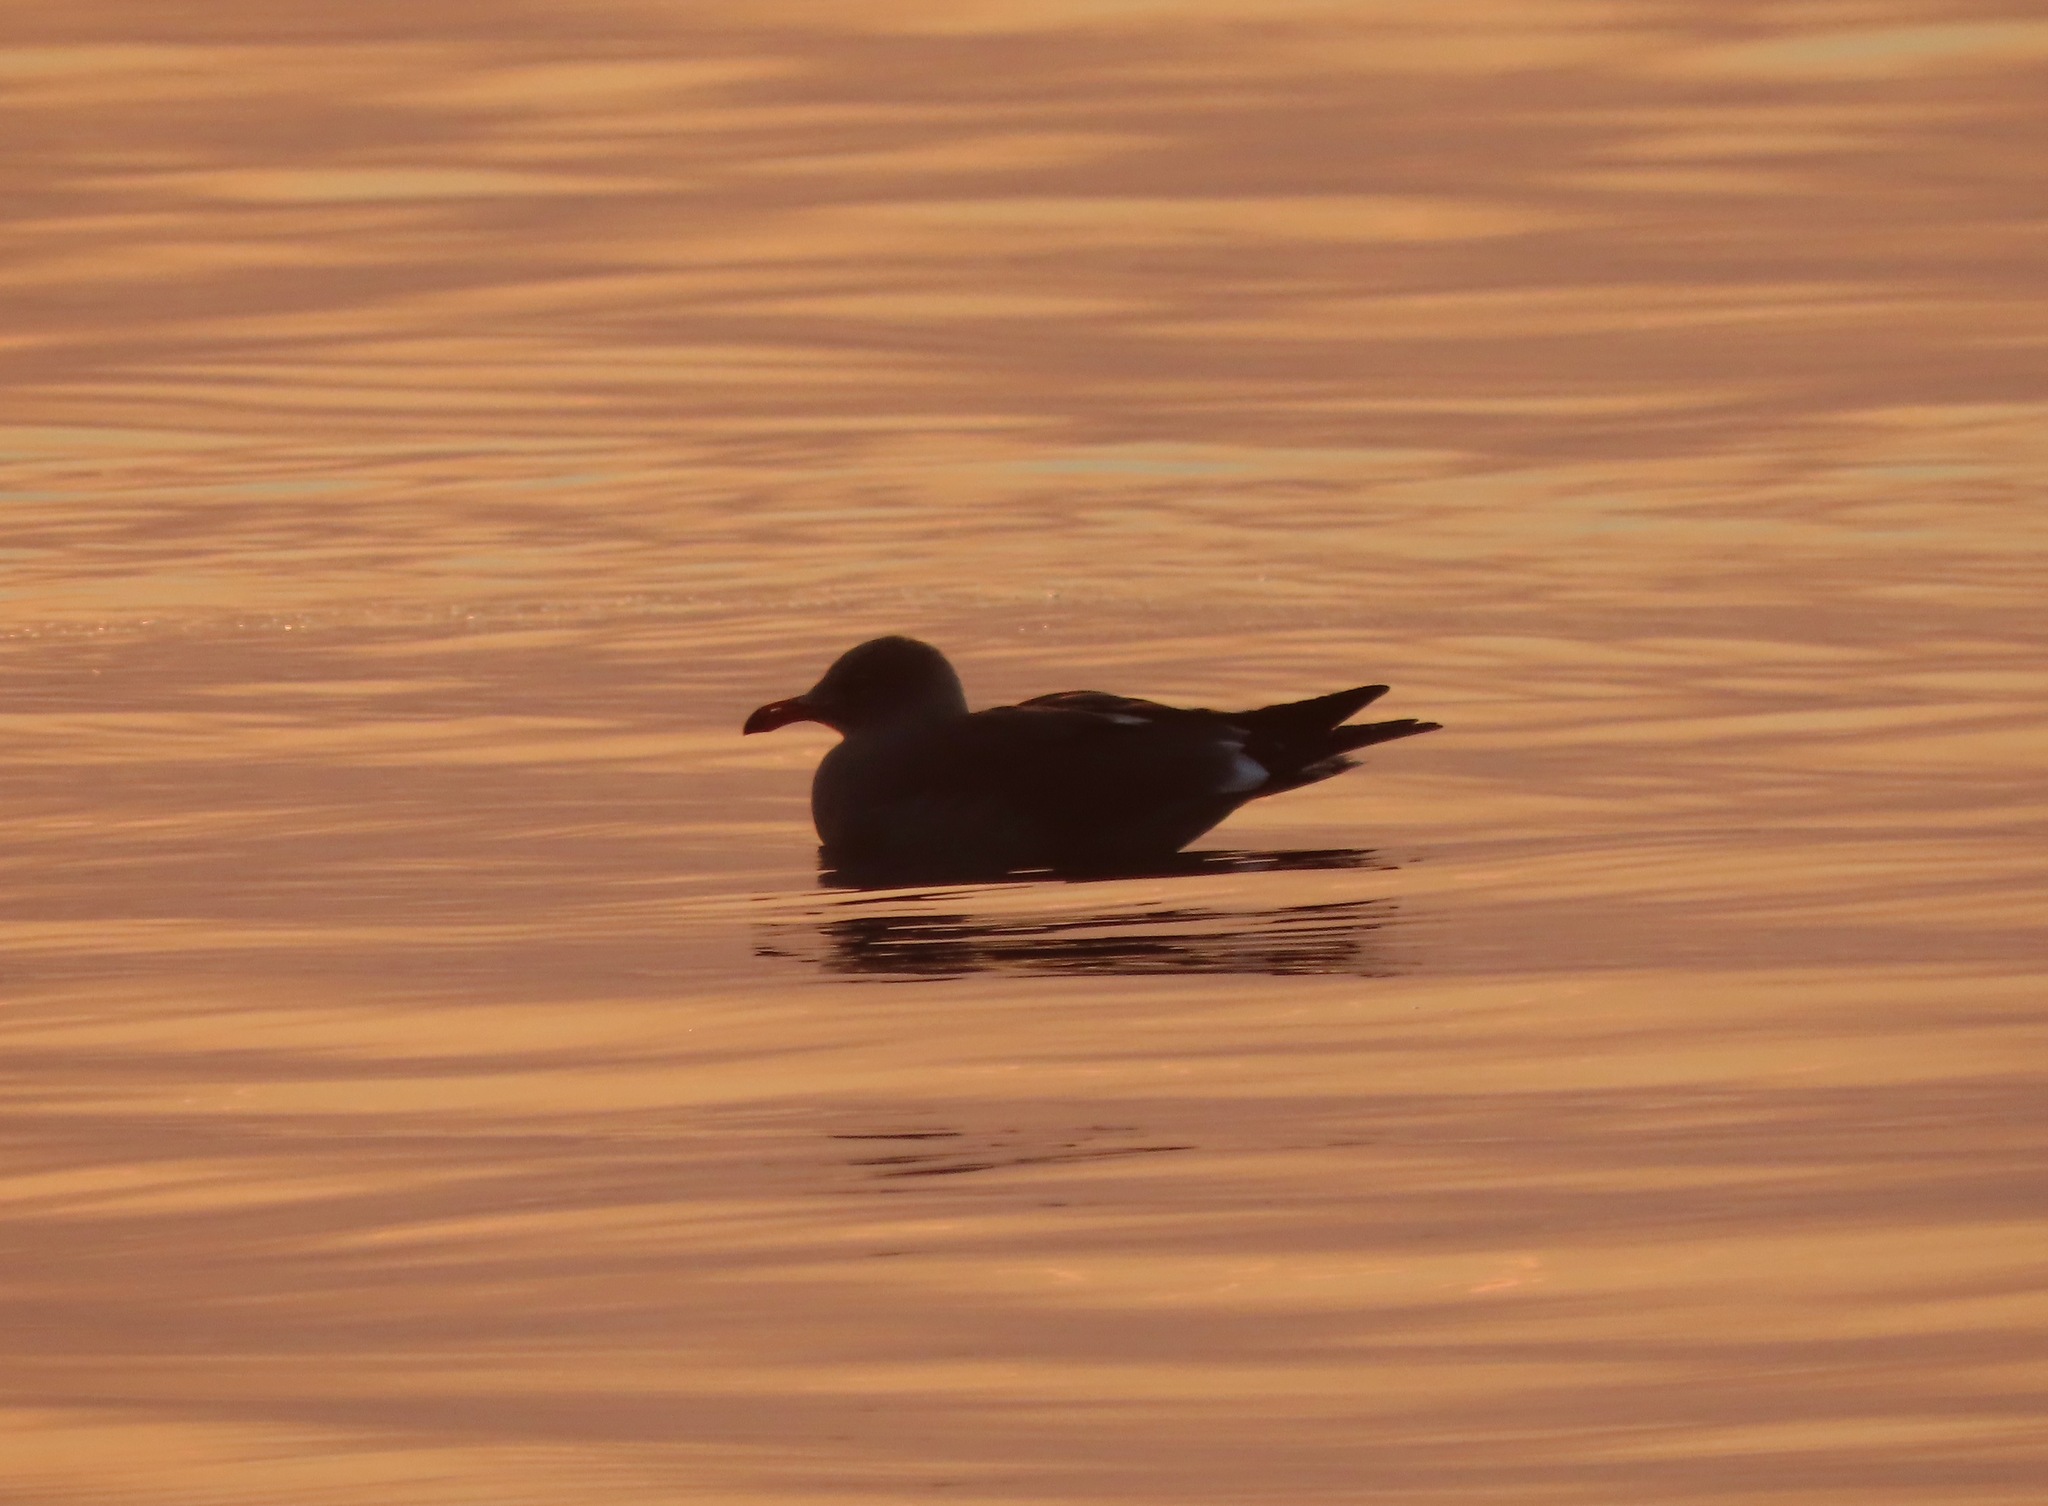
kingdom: Animalia
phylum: Chordata
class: Aves
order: Charadriiformes
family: Laridae
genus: Larus
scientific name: Larus heermanni
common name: Heermann's gull
